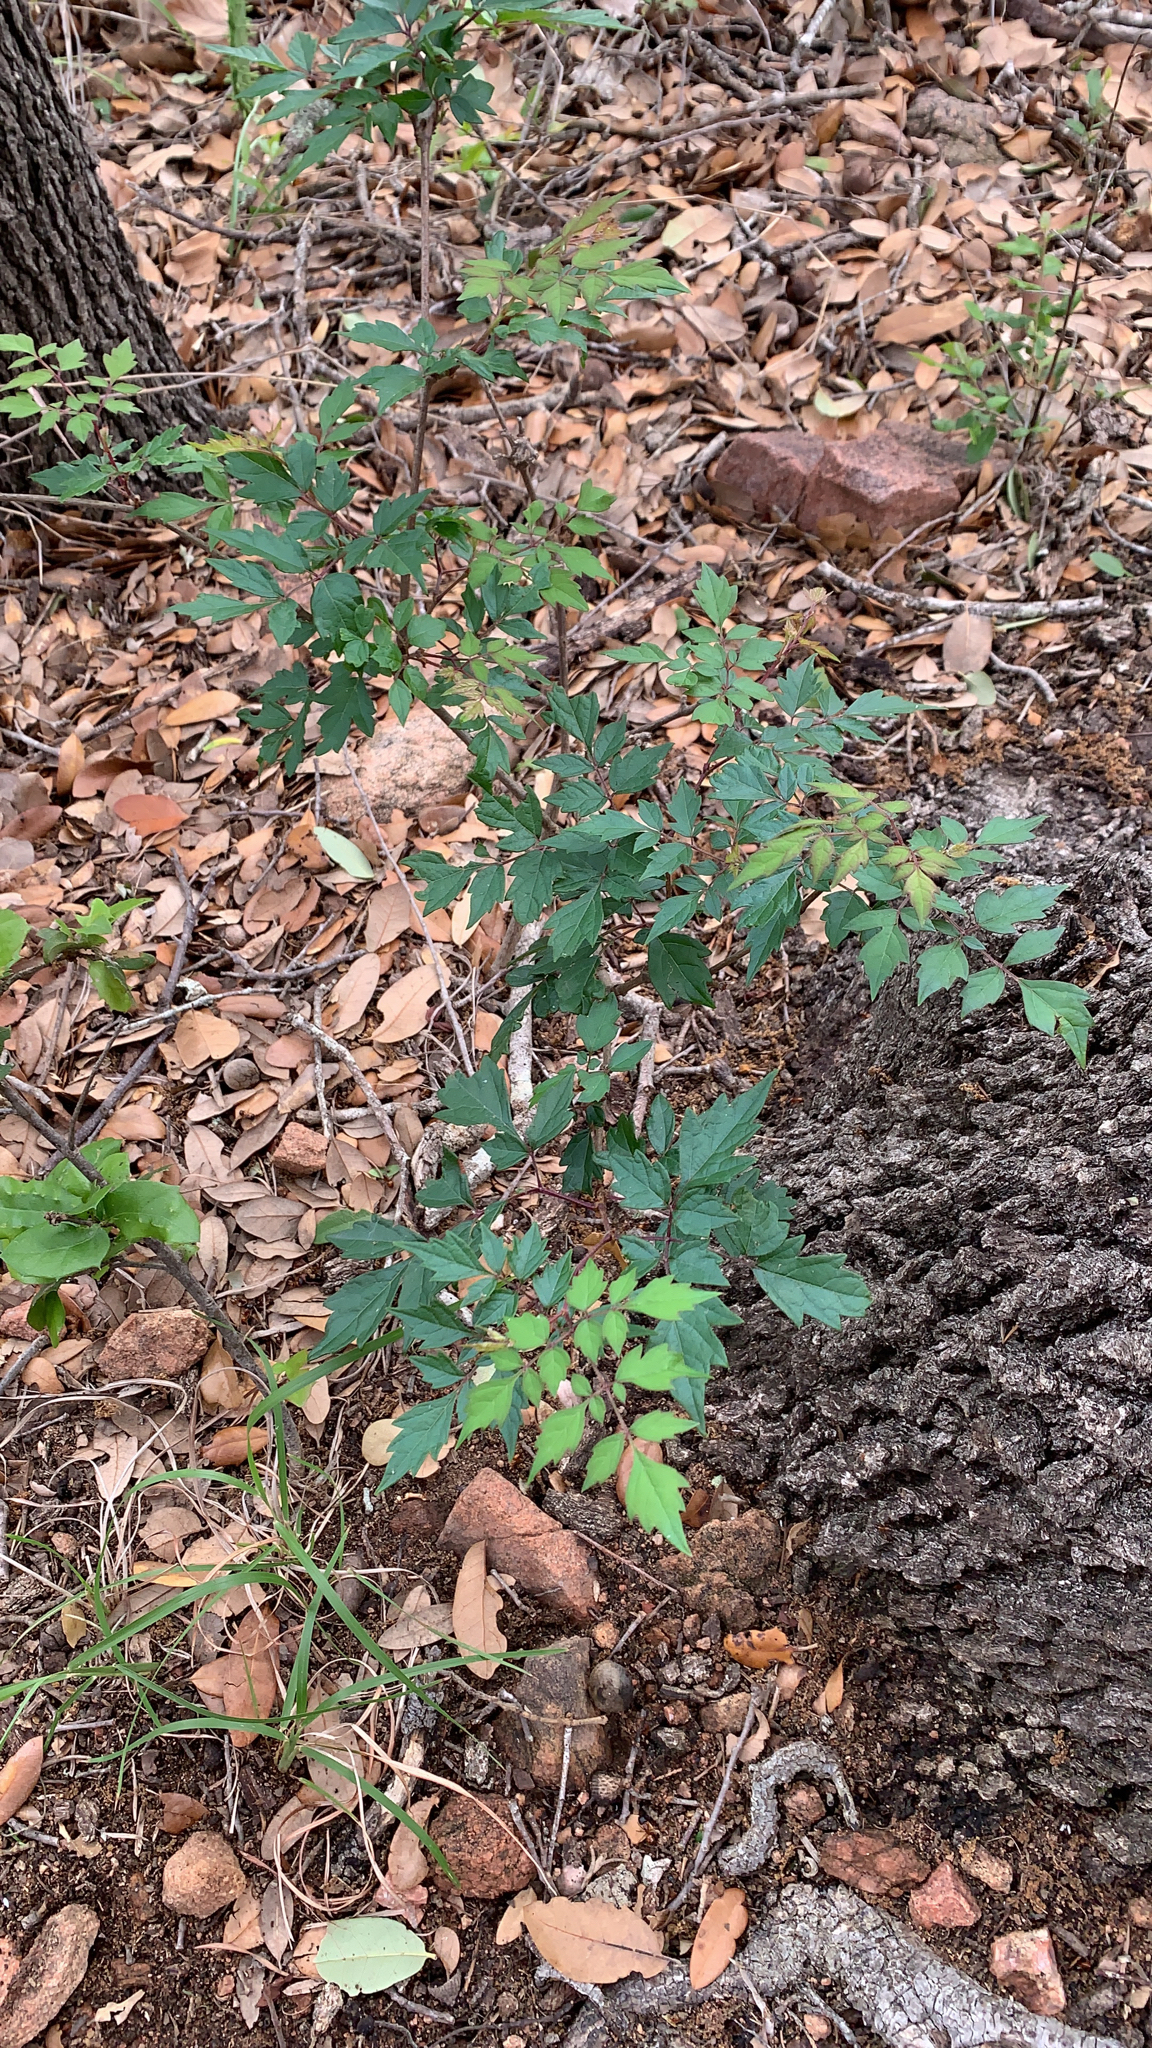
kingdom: Plantae
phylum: Tracheophyta
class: Magnoliopsida
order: Vitales
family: Vitaceae
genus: Nekemias
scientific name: Nekemias arborea
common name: Peppervine
